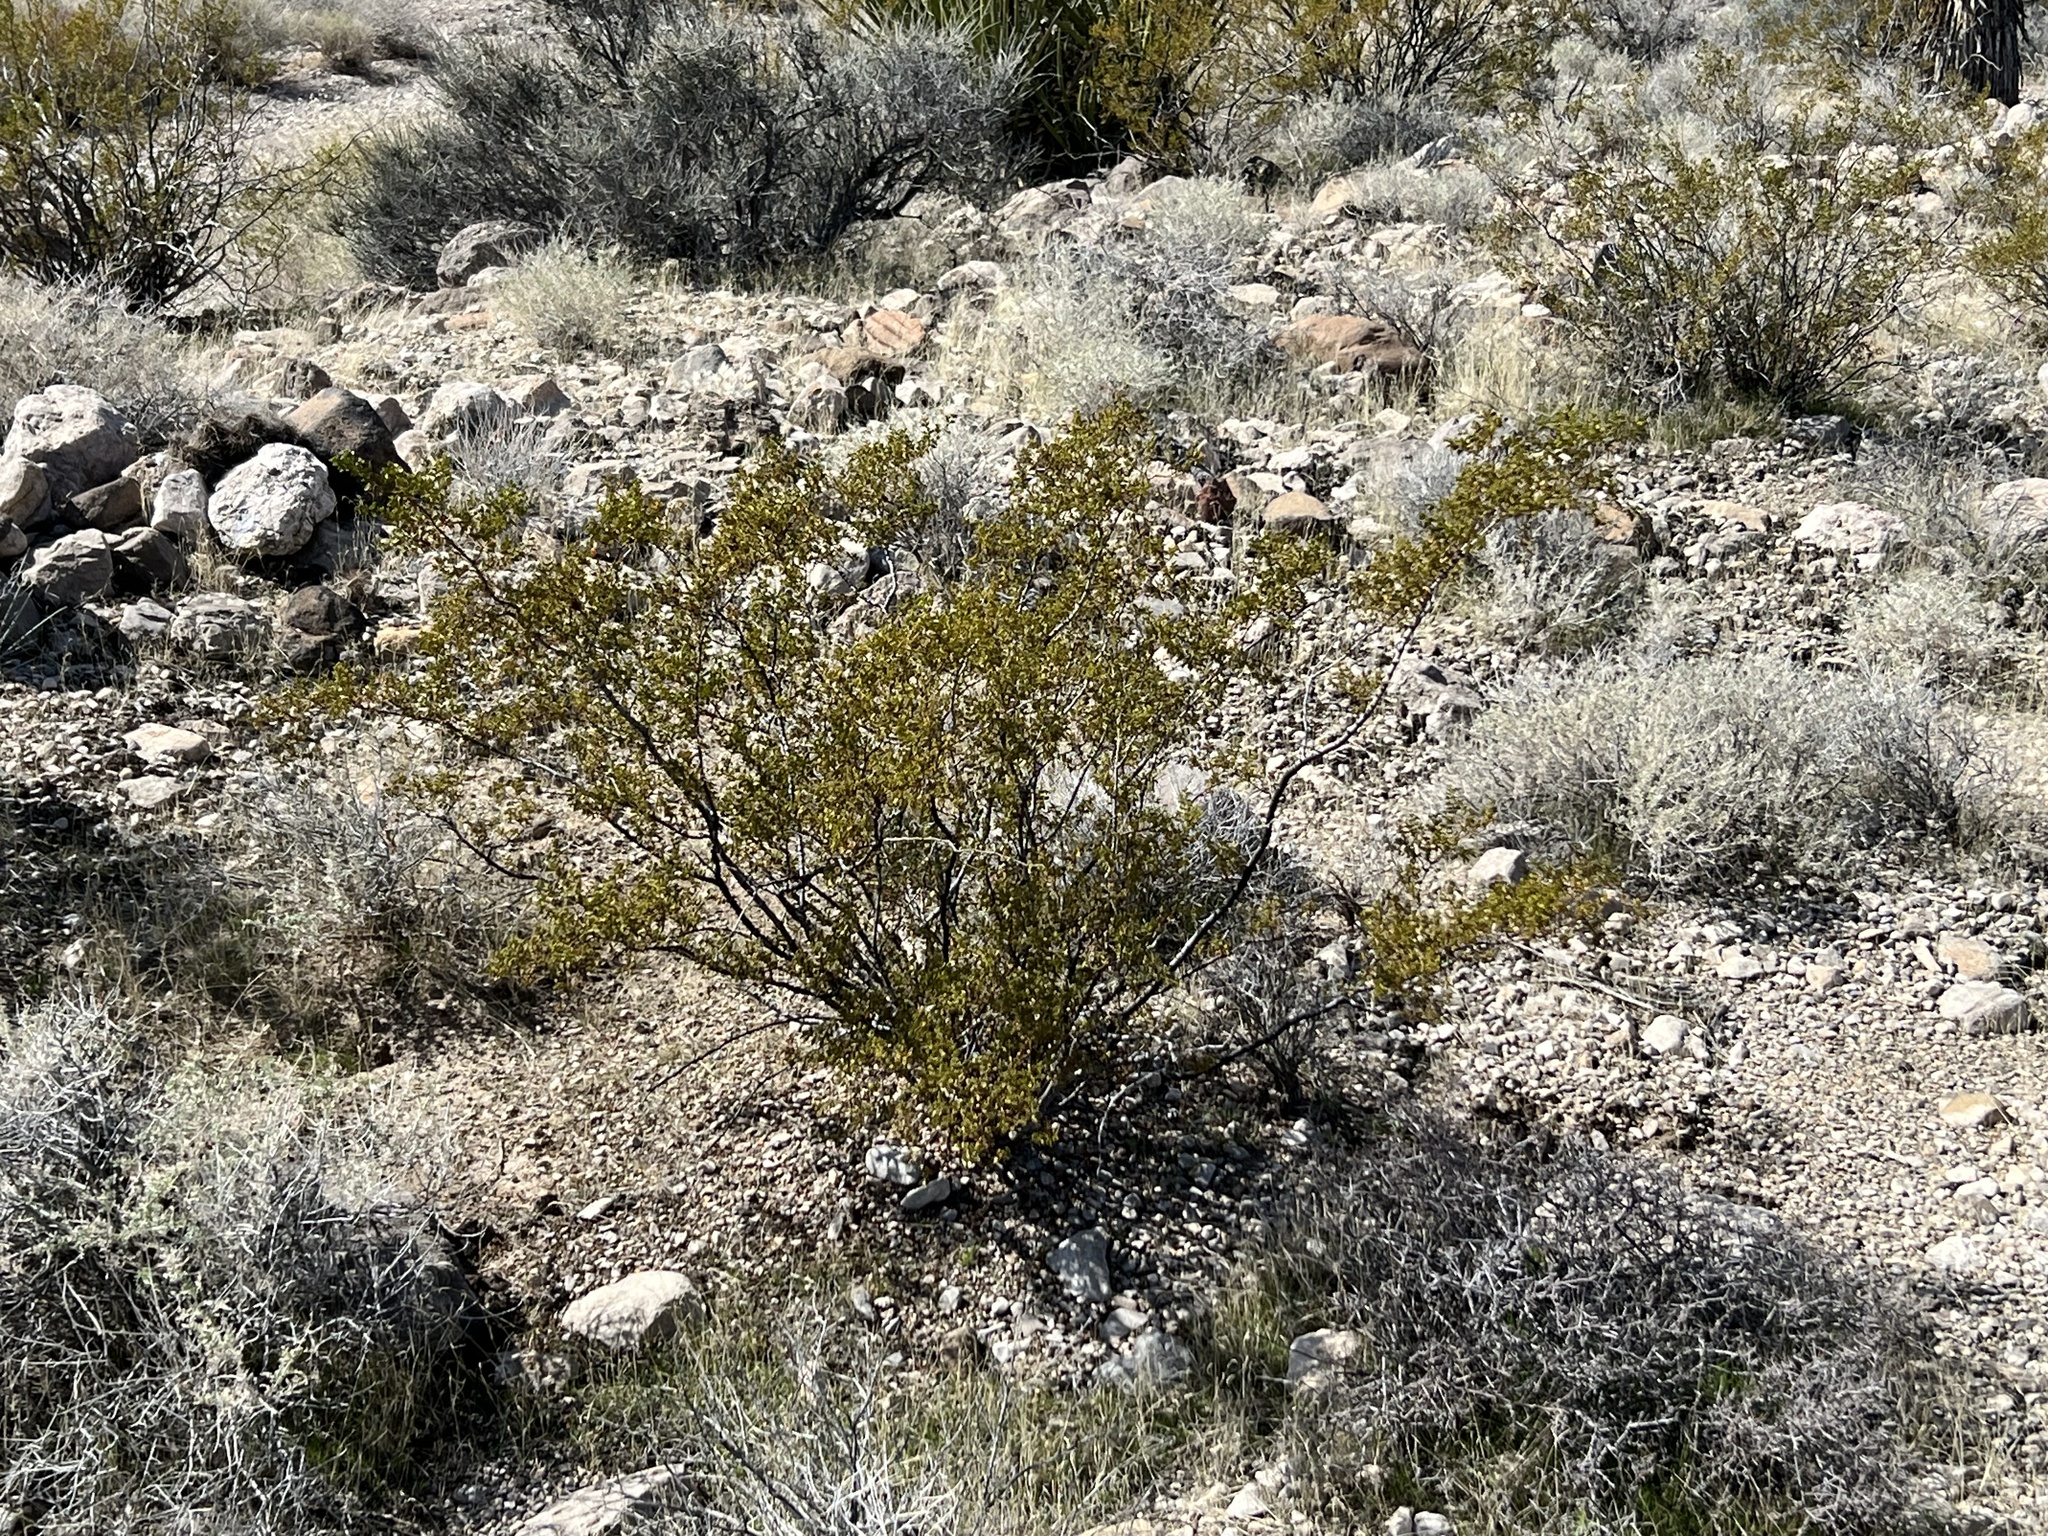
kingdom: Plantae
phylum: Tracheophyta
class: Magnoliopsida
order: Zygophyllales
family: Zygophyllaceae
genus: Larrea
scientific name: Larrea tridentata
